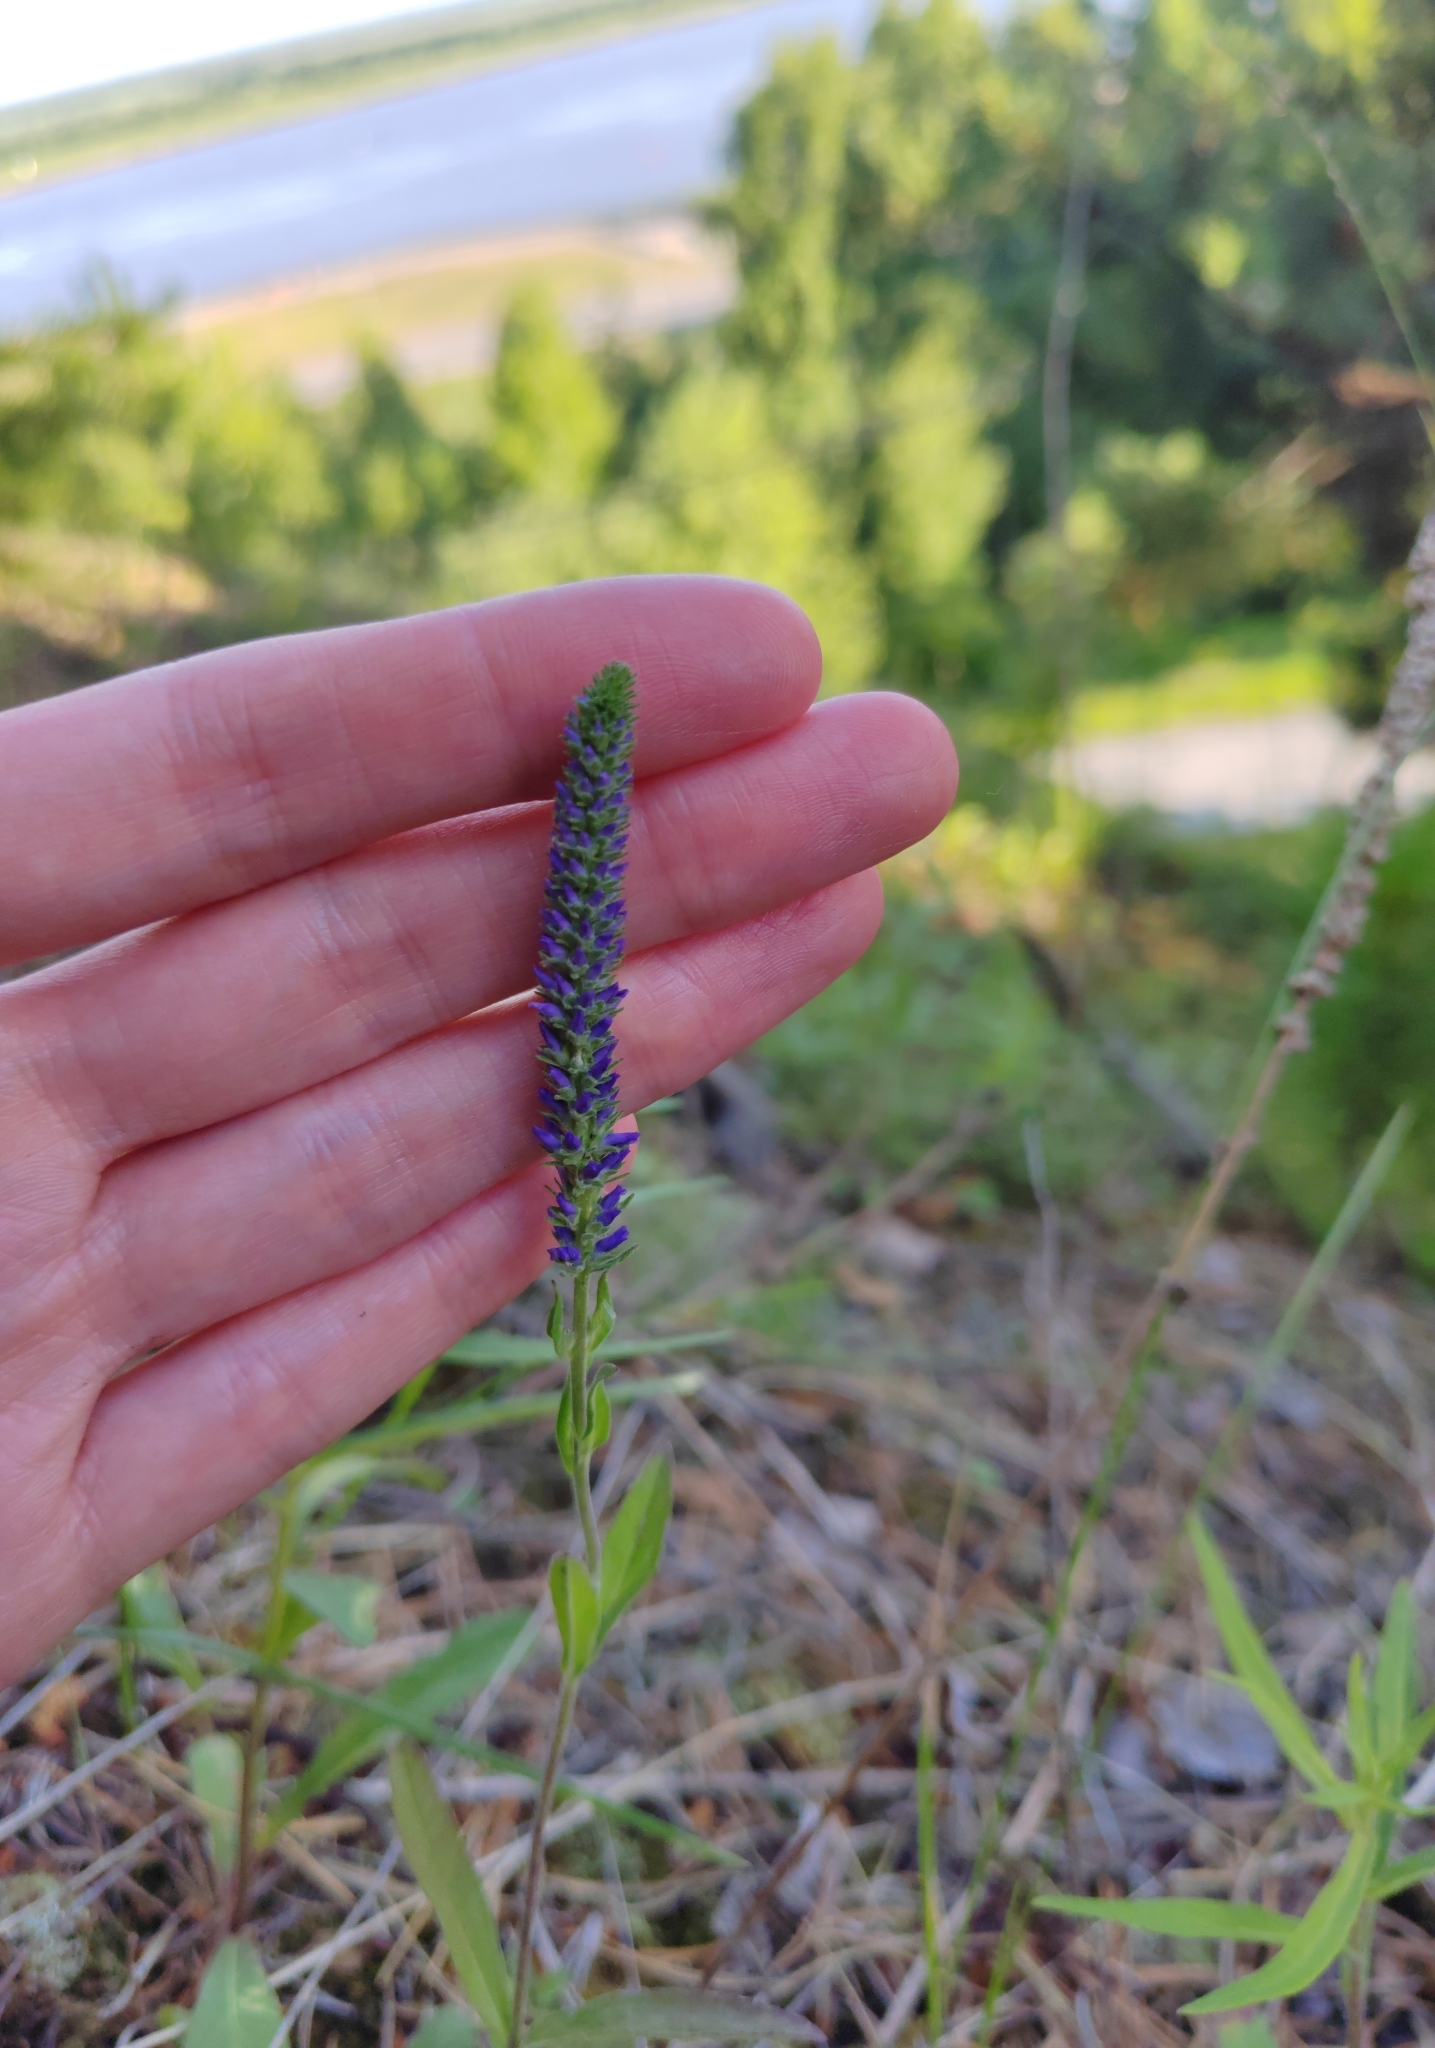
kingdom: Plantae
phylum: Tracheophyta
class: Magnoliopsida
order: Lamiales
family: Plantaginaceae
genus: Veronica
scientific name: Veronica spicata
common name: Spiked speedwell
